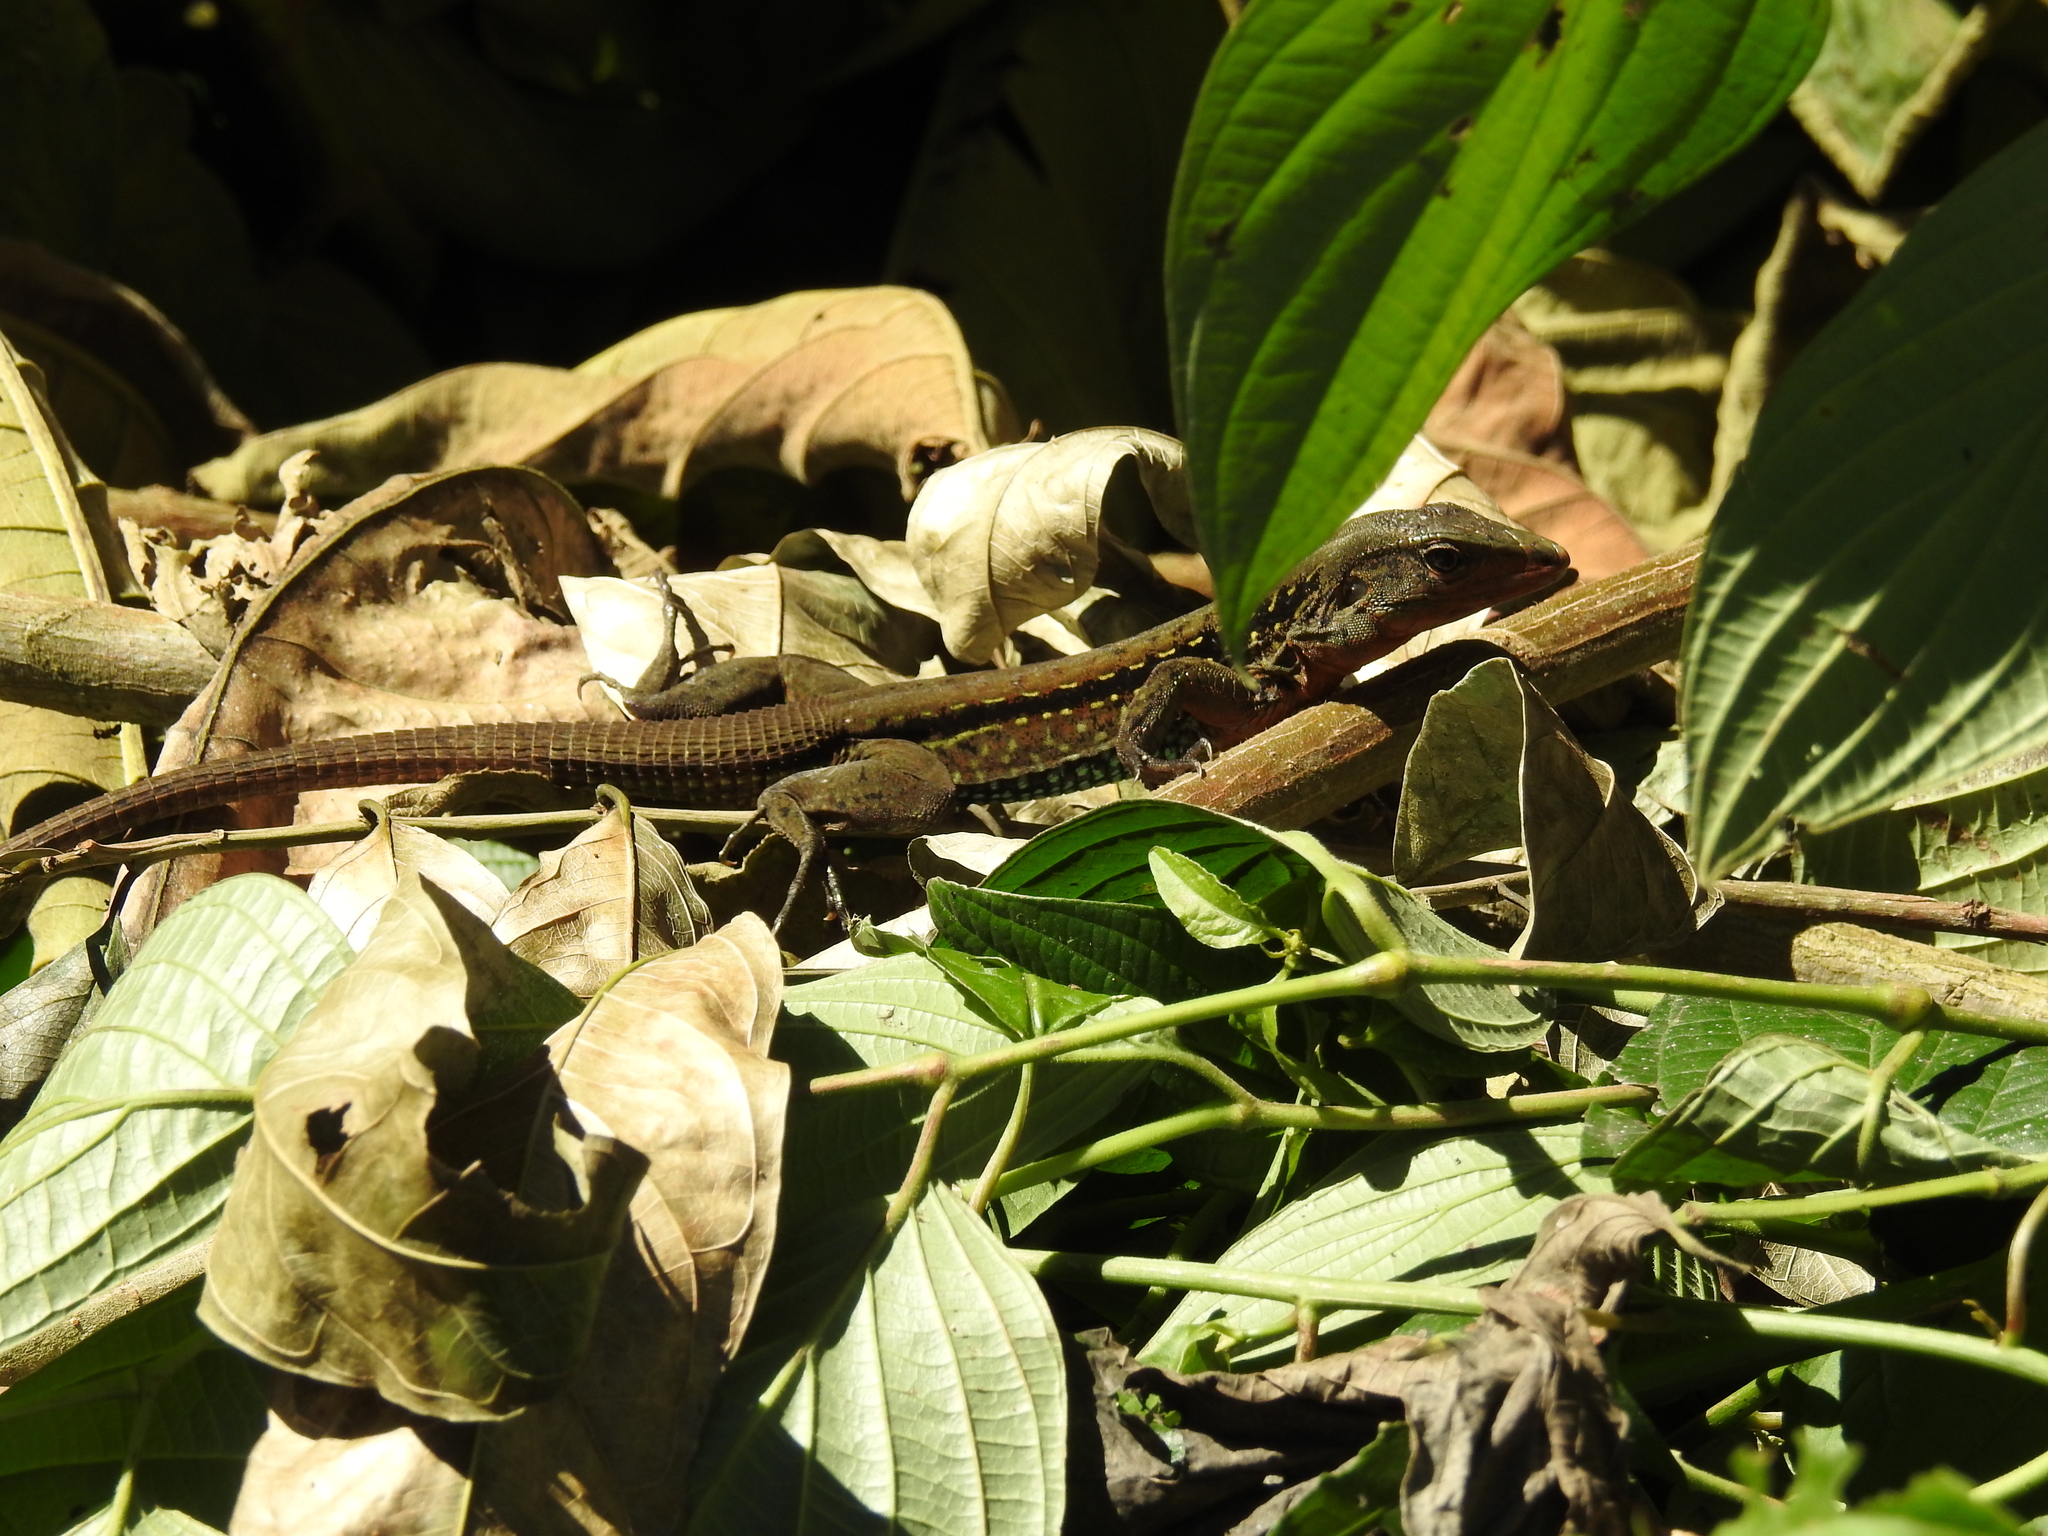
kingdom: Animalia
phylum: Chordata
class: Squamata
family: Teiidae
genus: Holcosus
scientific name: Holcosus festivus
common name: Middle american ameiva
